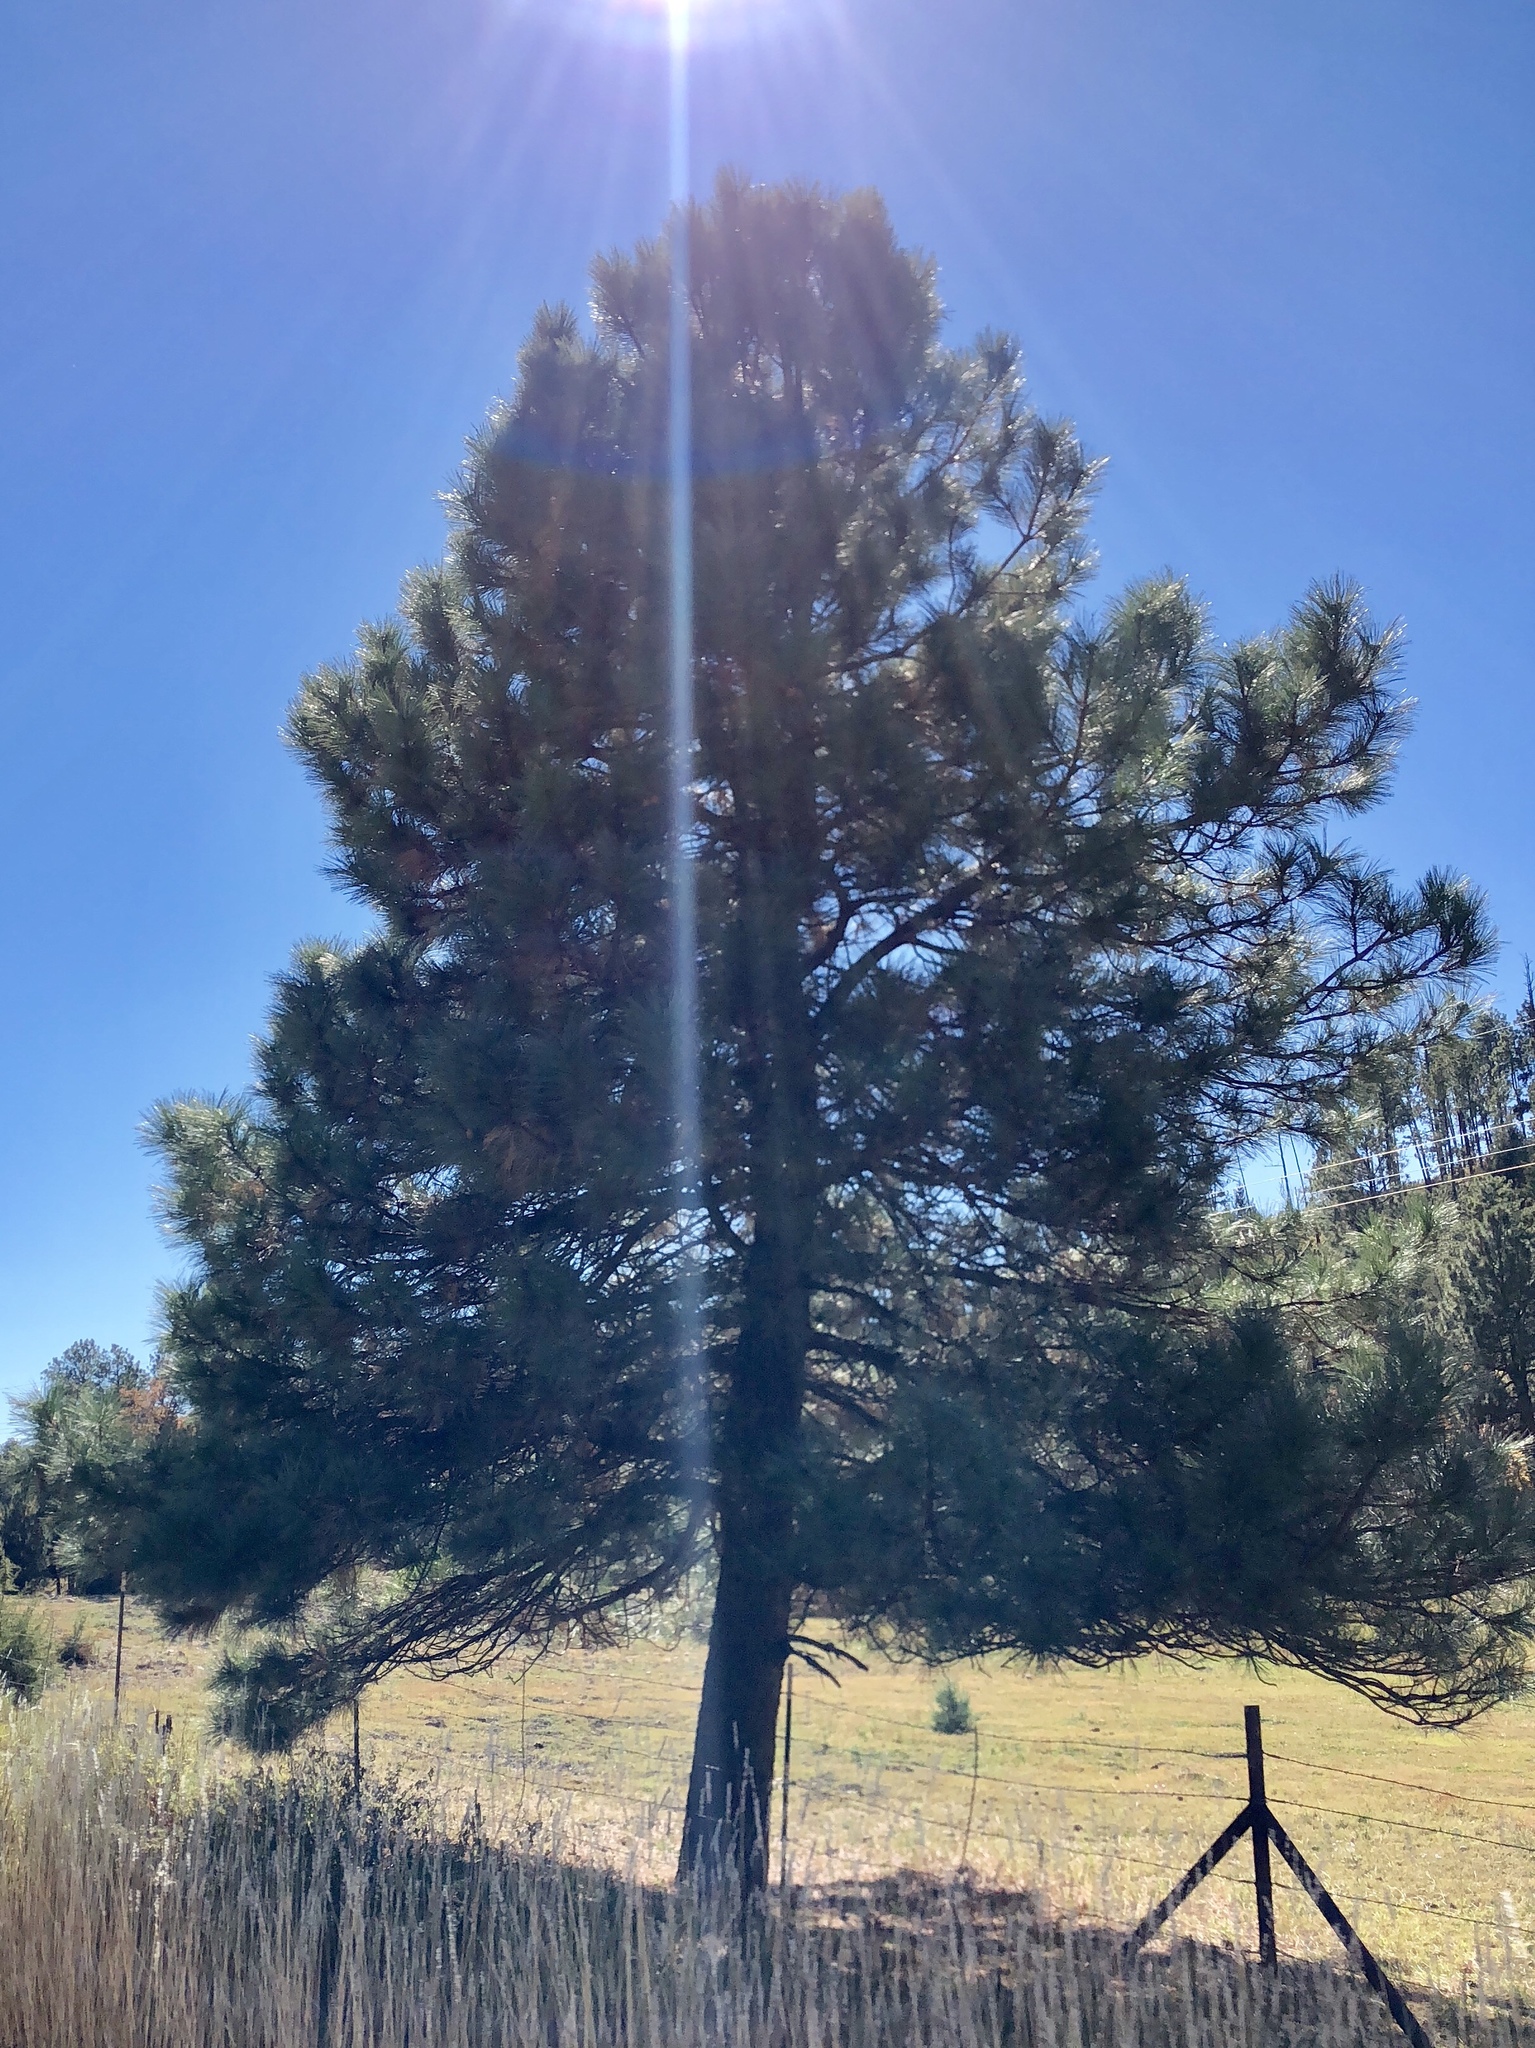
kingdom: Plantae
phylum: Tracheophyta
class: Pinopsida
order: Pinales
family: Pinaceae
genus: Pinus
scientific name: Pinus ponderosa
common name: Western yellow-pine
